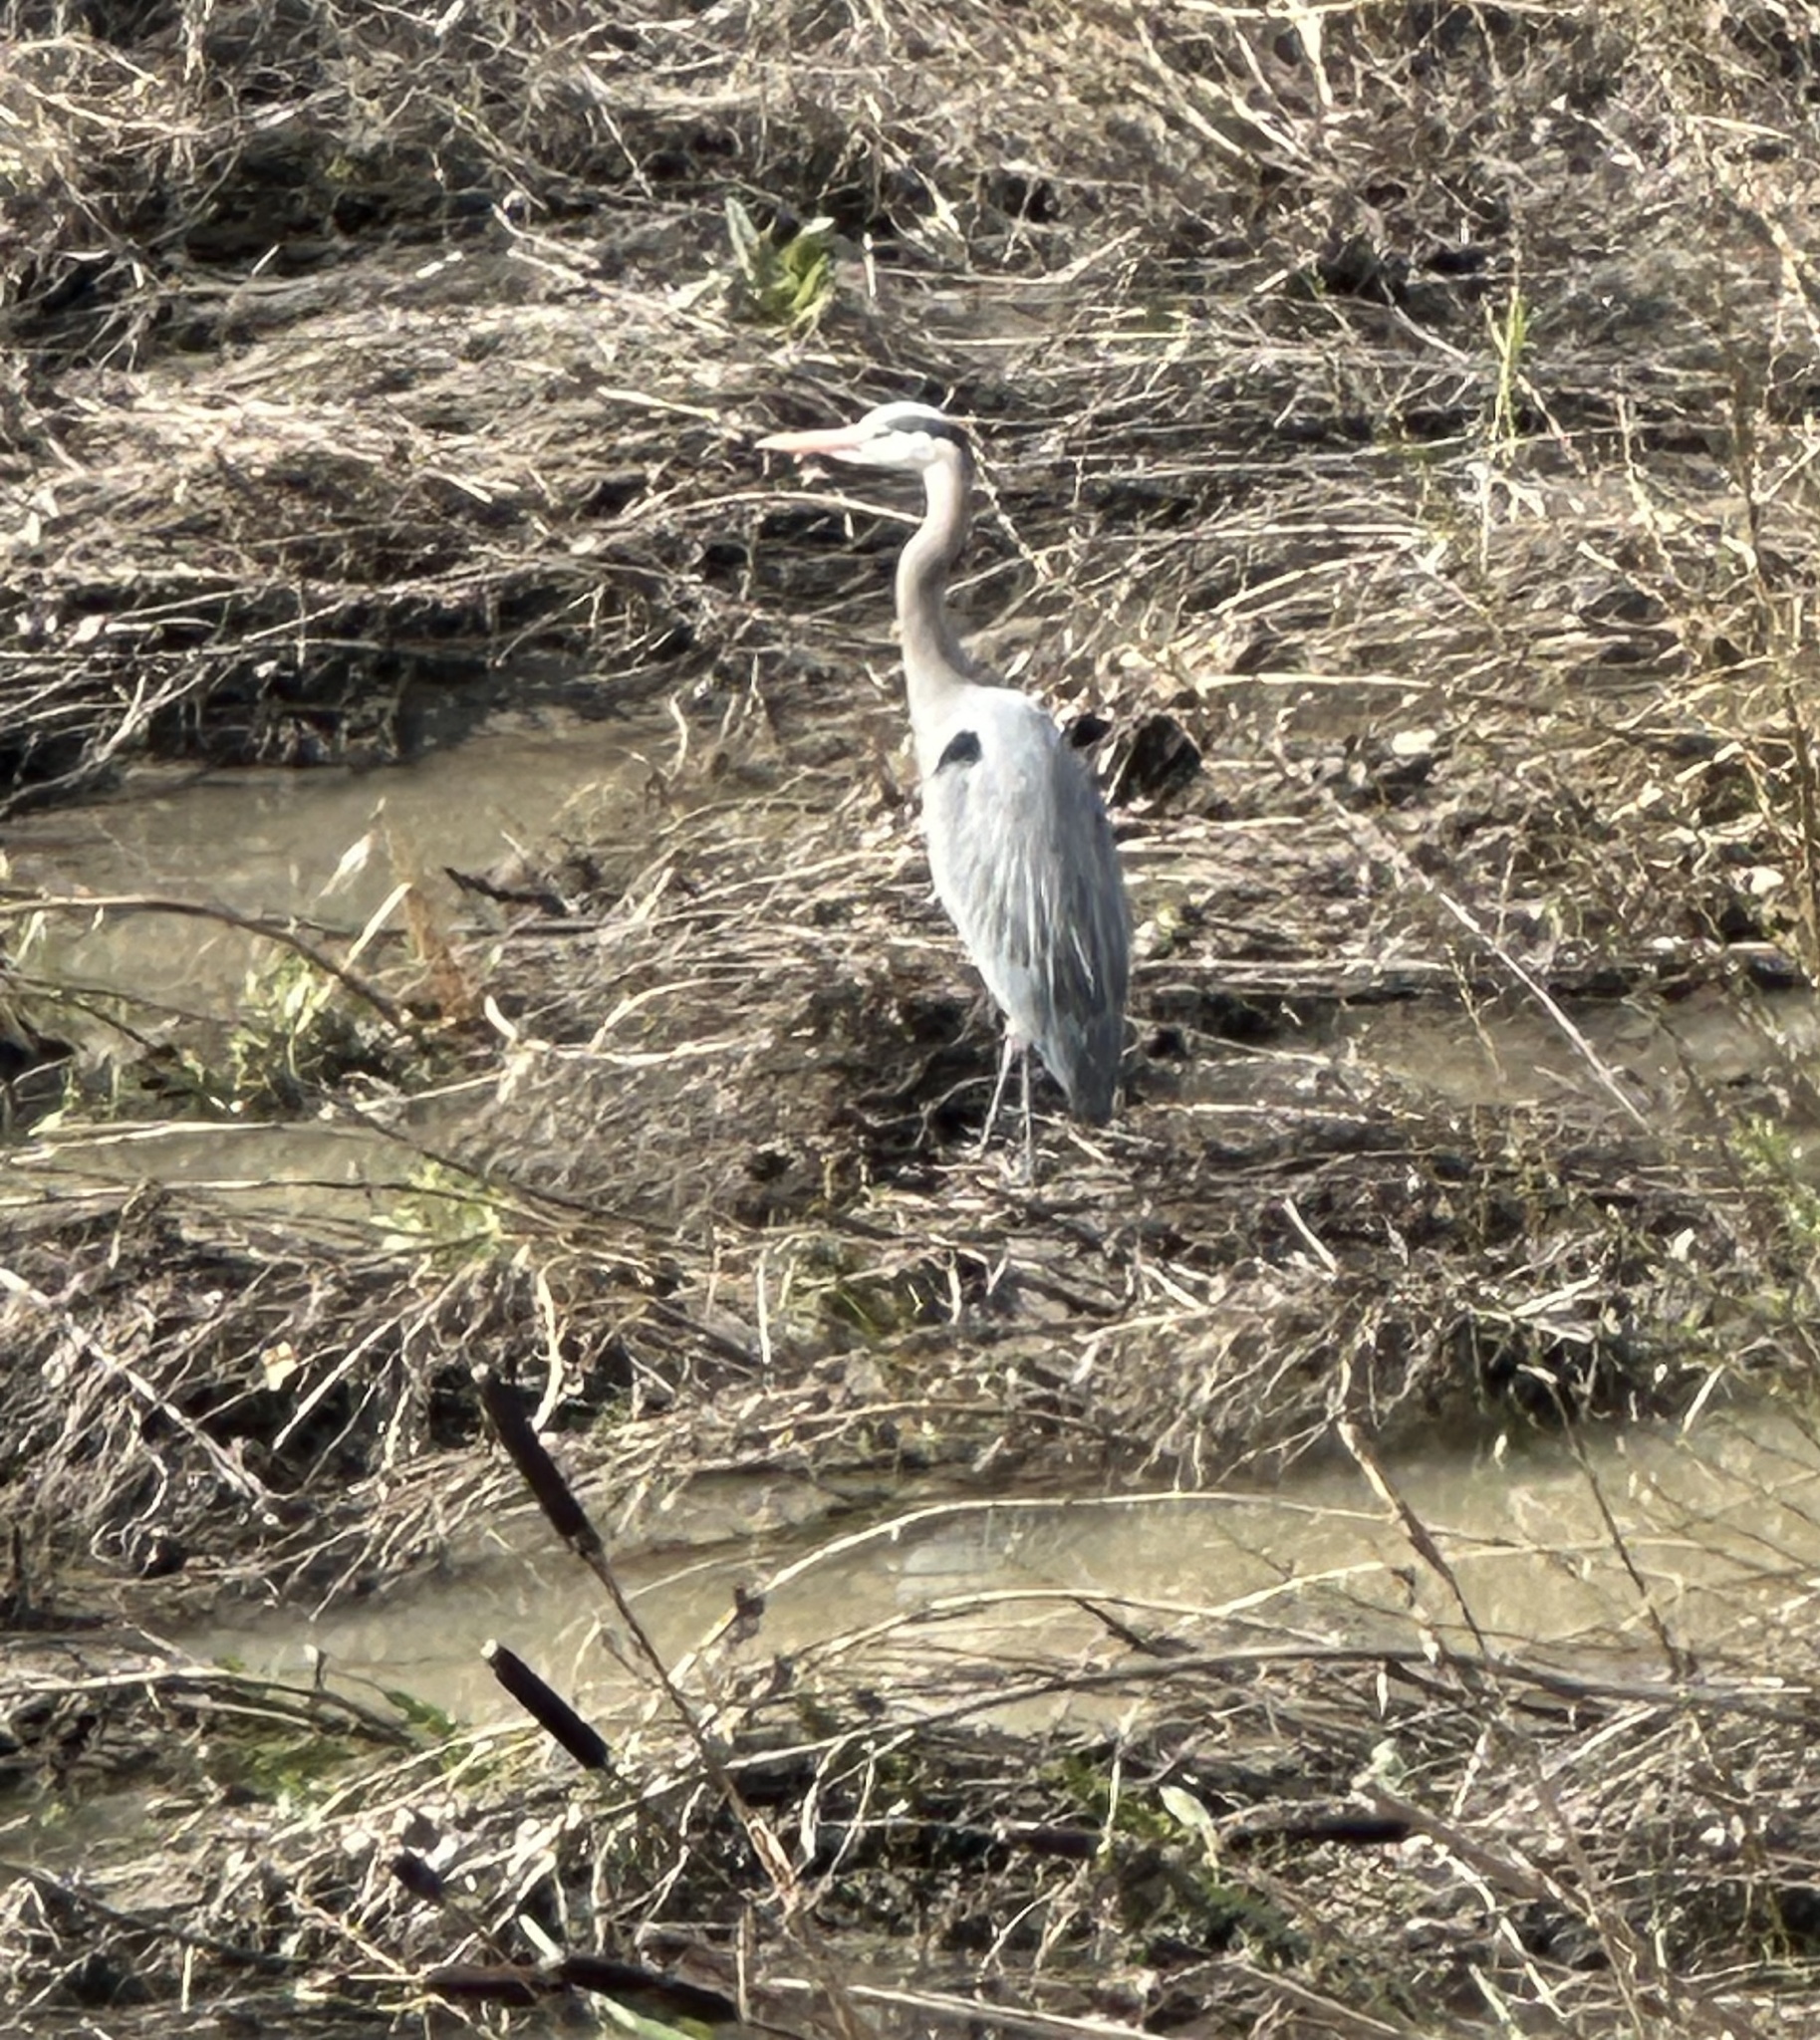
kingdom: Animalia
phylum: Chordata
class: Aves
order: Pelecaniformes
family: Ardeidae
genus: Ardea
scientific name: Ardea herodias
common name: Great blue heron
